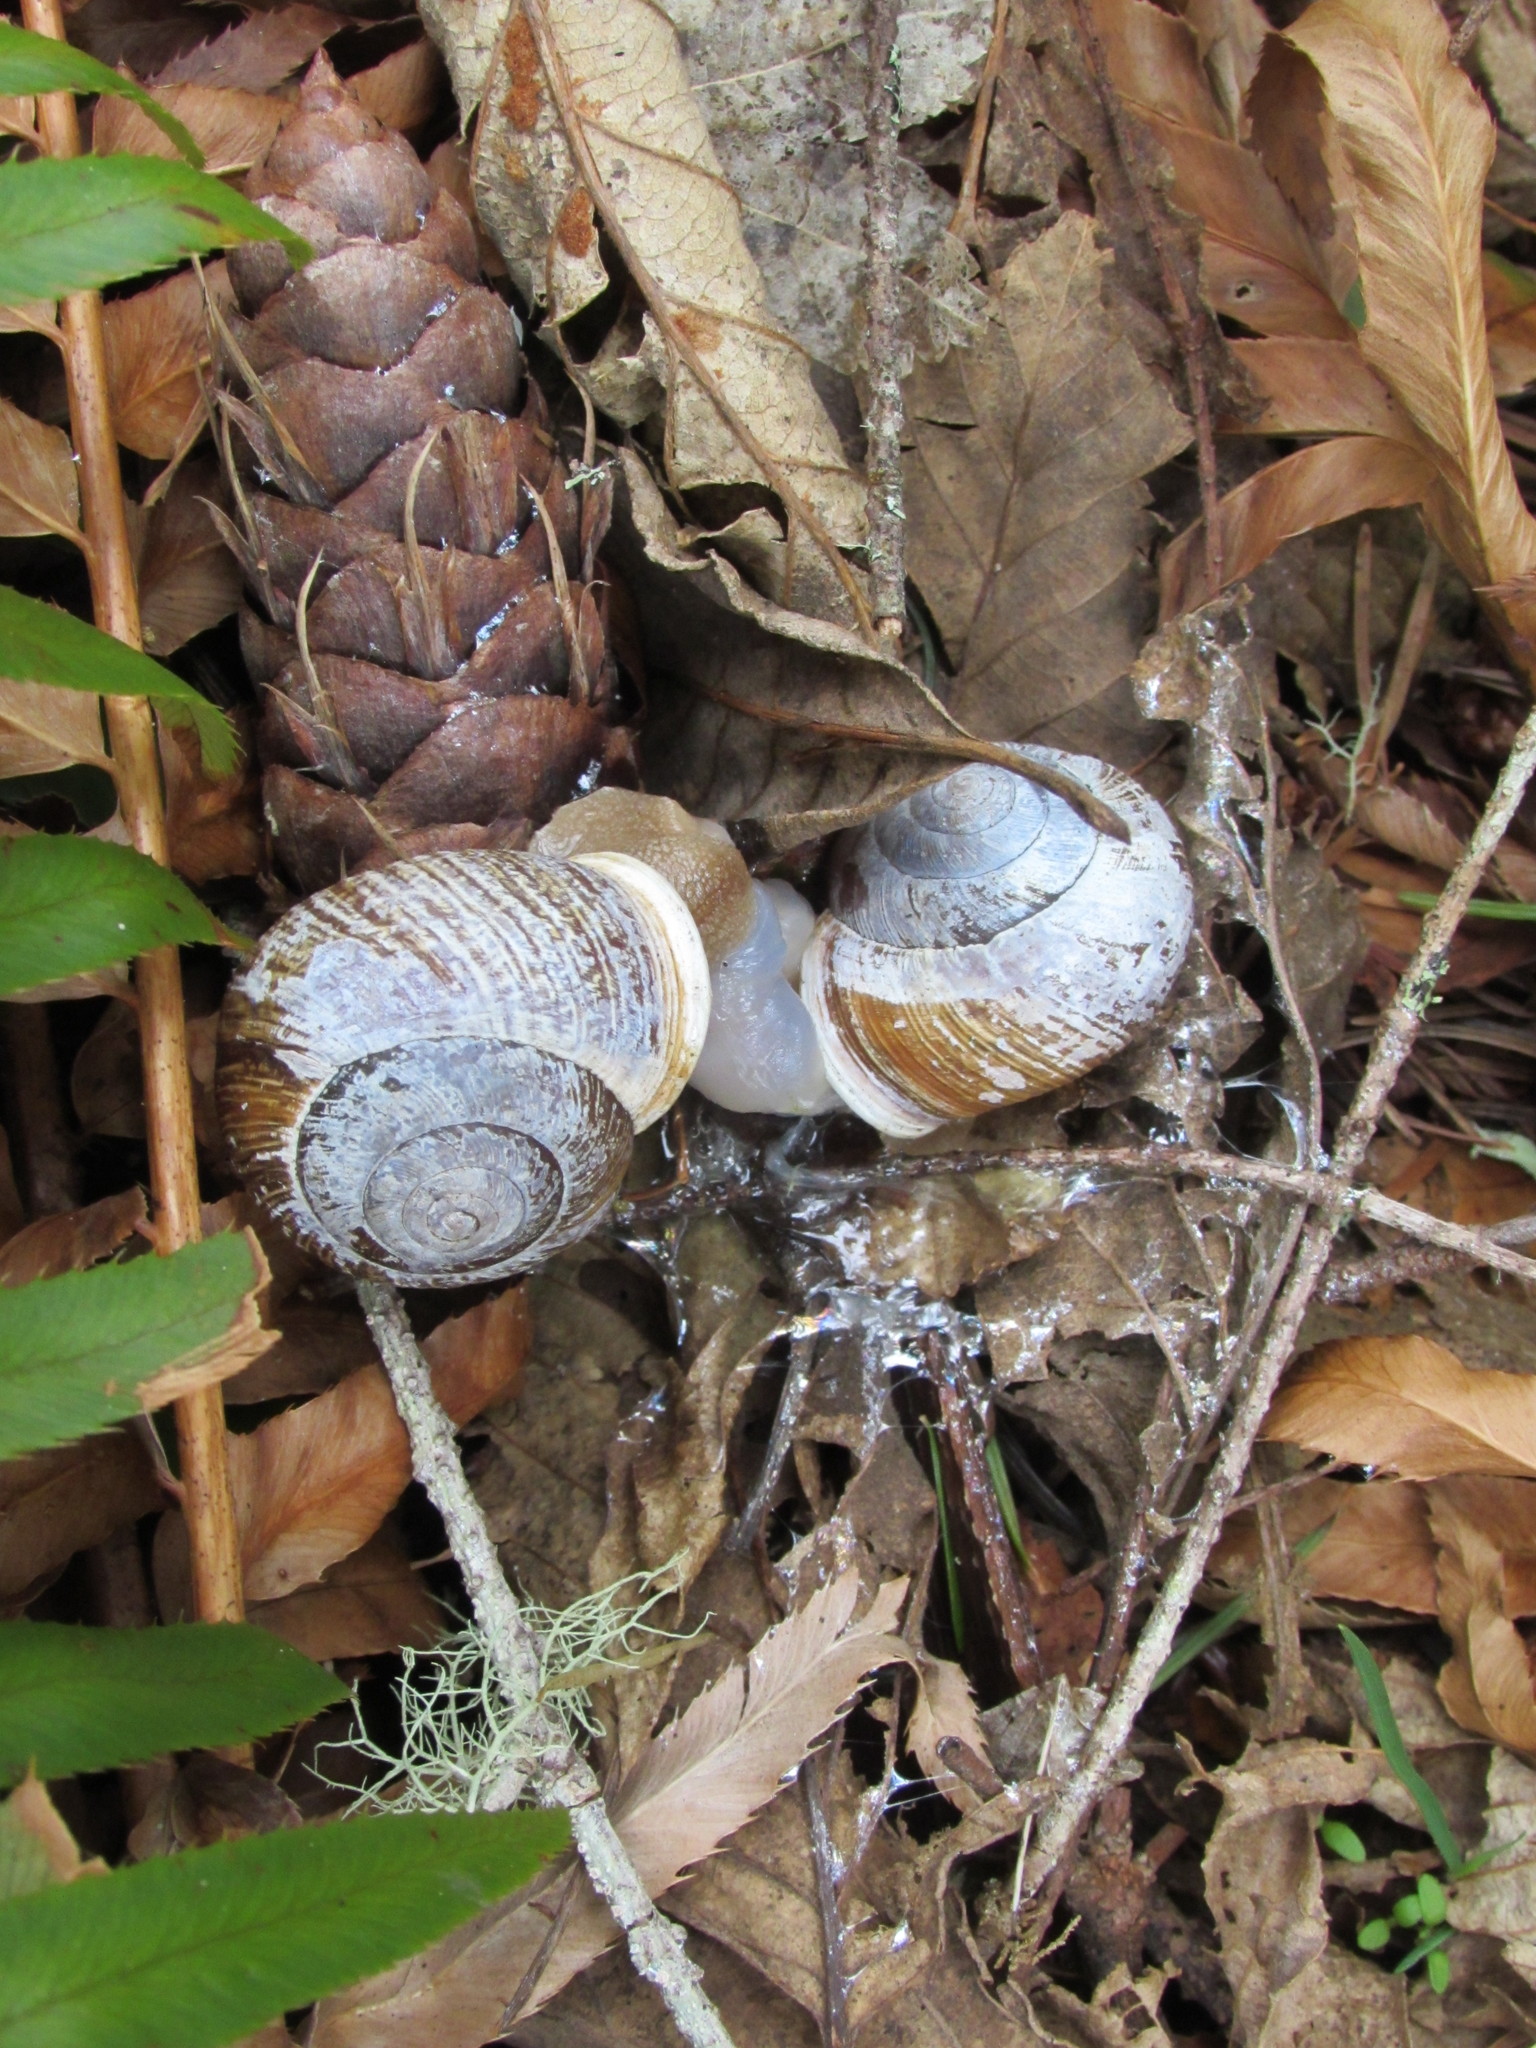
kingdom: Animalia
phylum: Mollusca
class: Gastropoda
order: Stylommatophora
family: Polygyridae
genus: Allogona
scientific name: Allogona townsendiana
